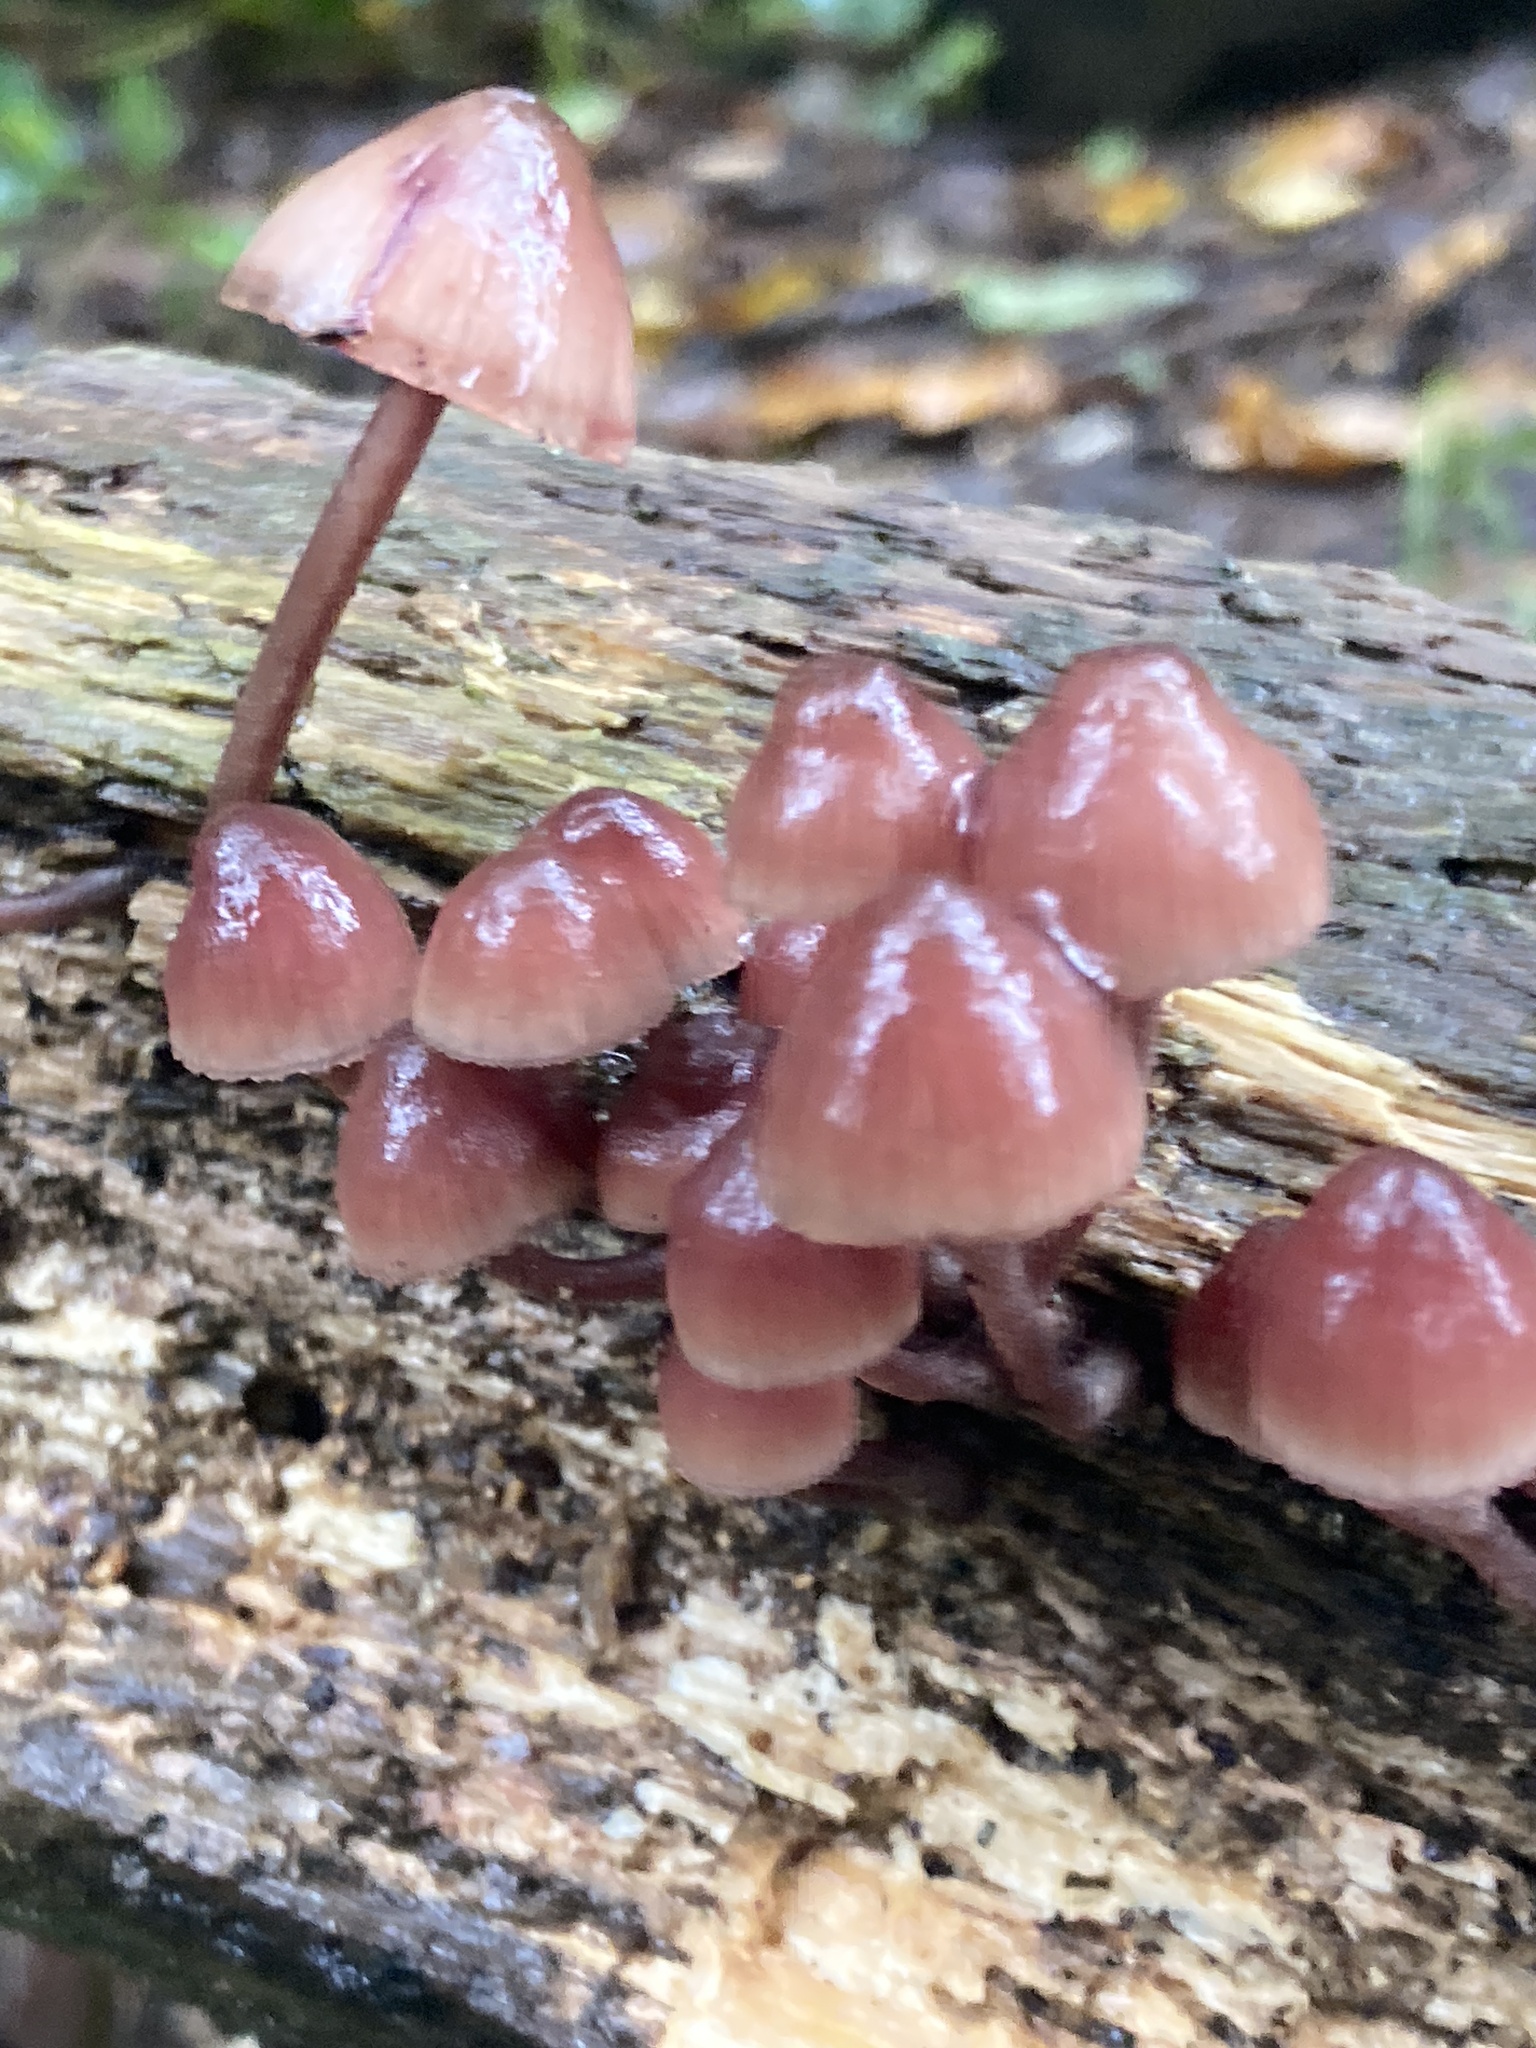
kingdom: Fungi
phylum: Basidiomycota
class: Agaricomycetes
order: Agaricales
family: Mycenaceae
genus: Mycena
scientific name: Mycena haematopus
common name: Burgundydrop bonnet
